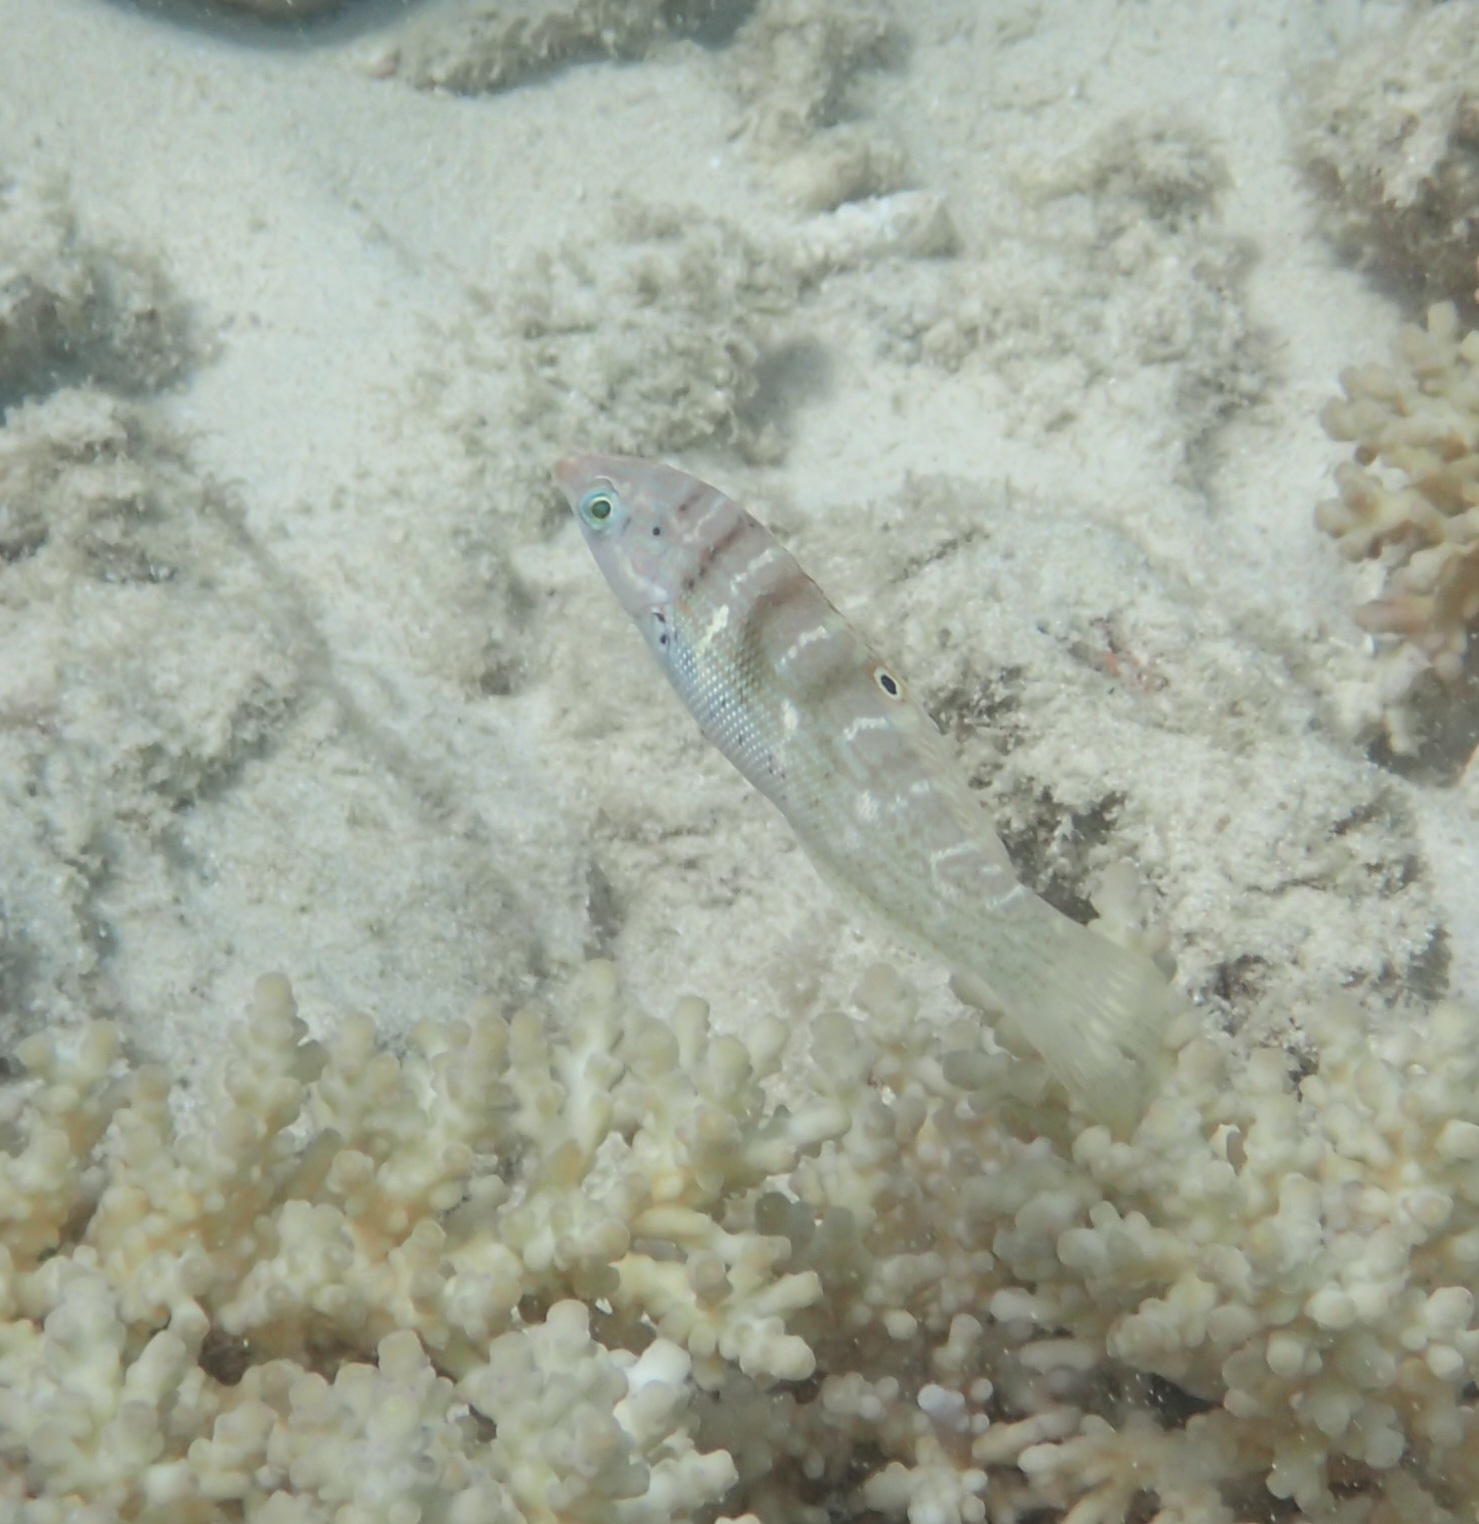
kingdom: Animalia
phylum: Chordata
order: Perciformes
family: Labridae
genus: Coris
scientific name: Coris batuensis
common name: Batu coris
